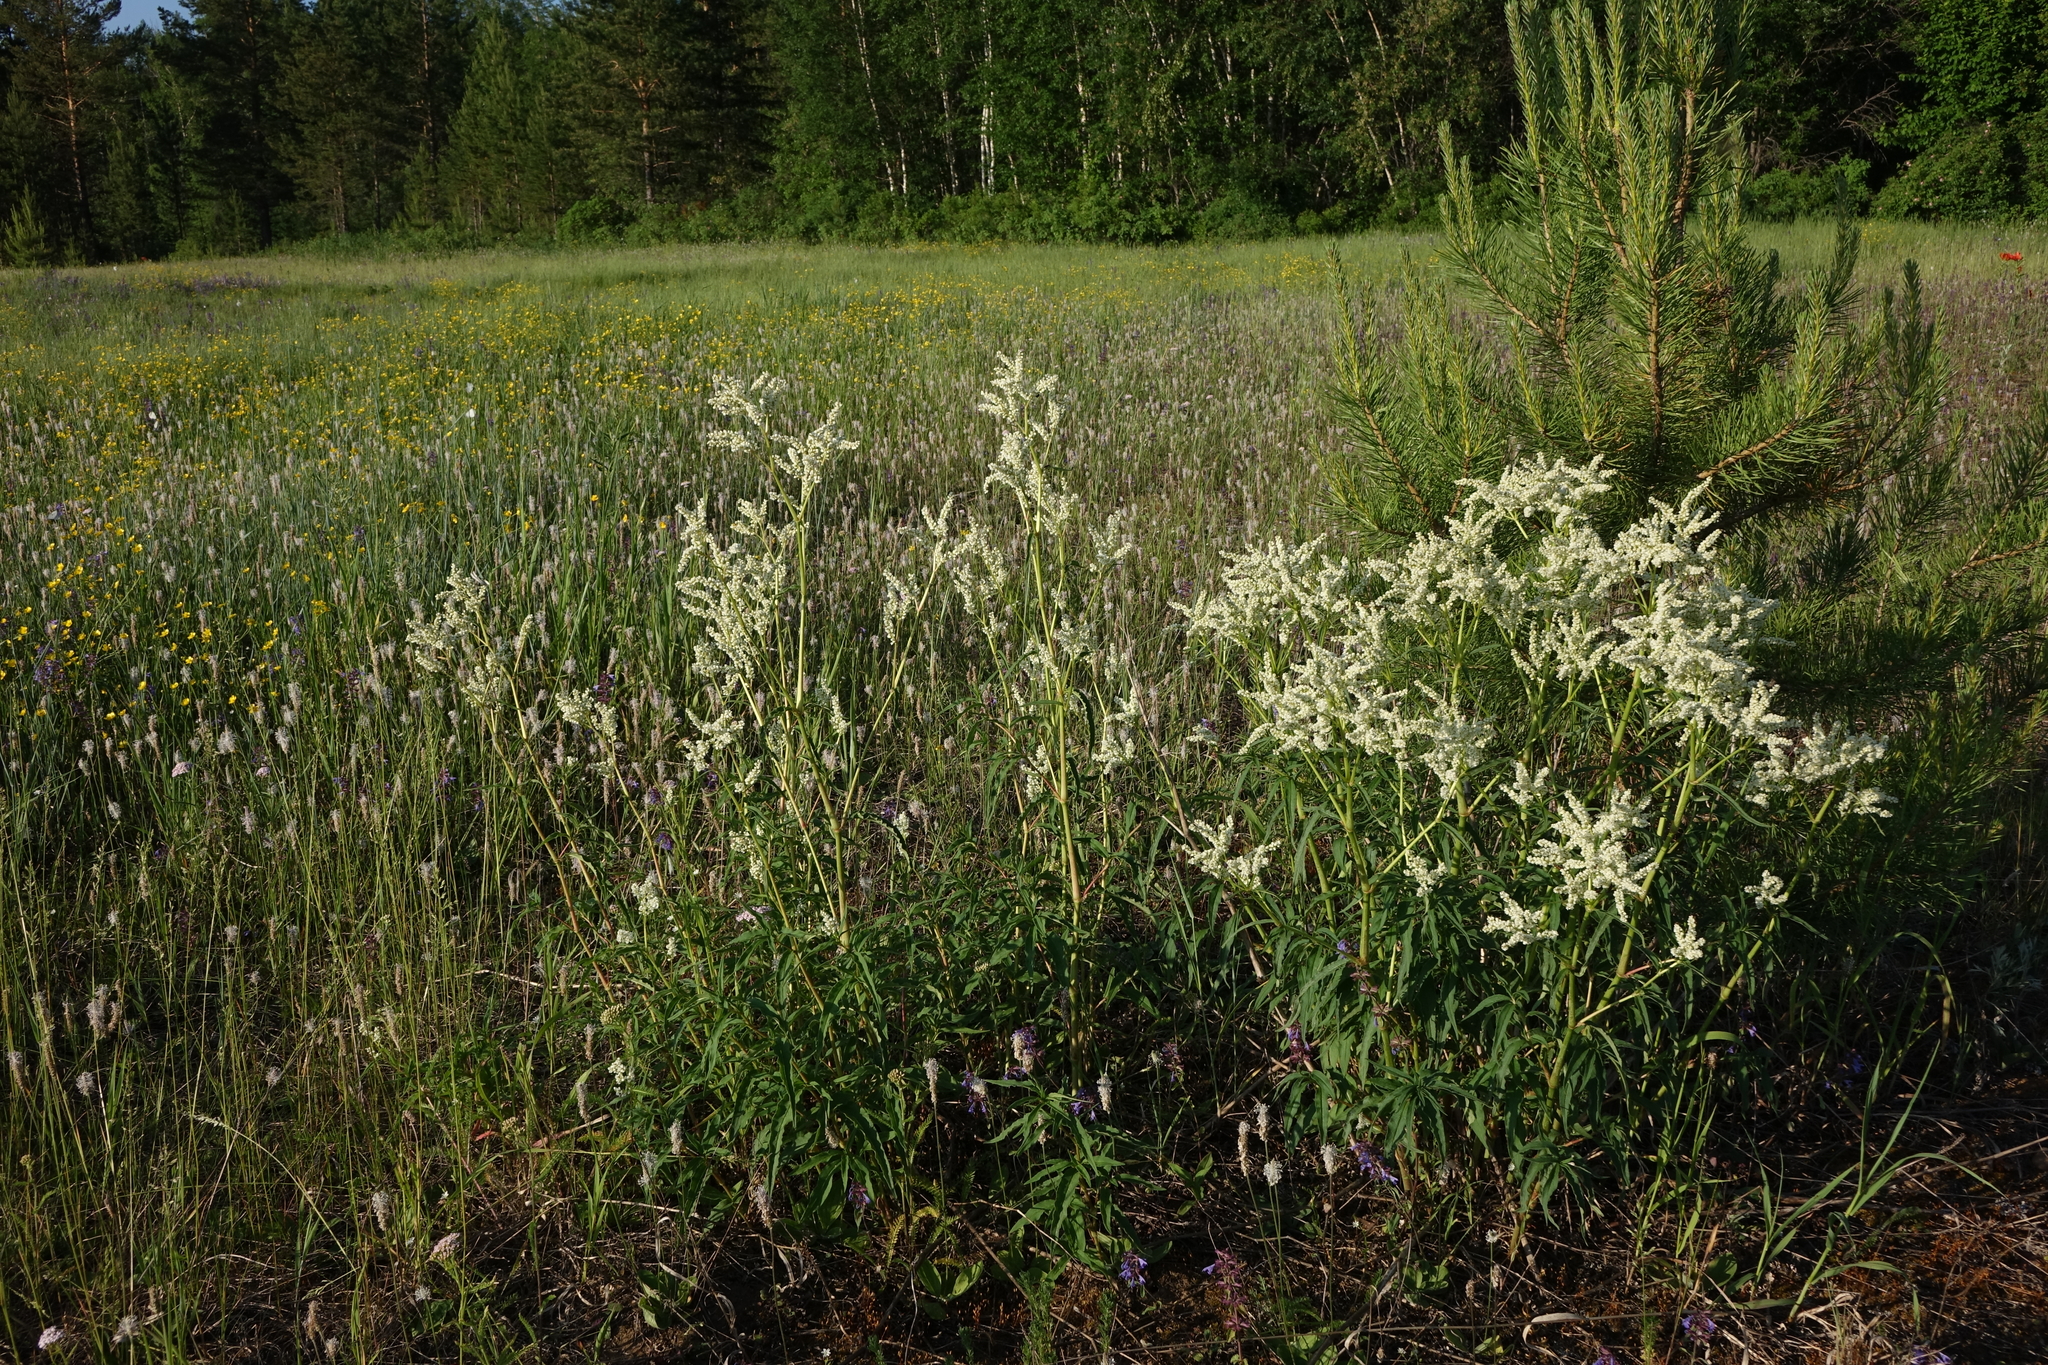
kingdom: Plantae
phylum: Tracheophyta
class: Pinopsida
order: Pinales
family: Pinaceae
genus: Pinus
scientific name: Pinus sylvestris
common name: Scots pine
